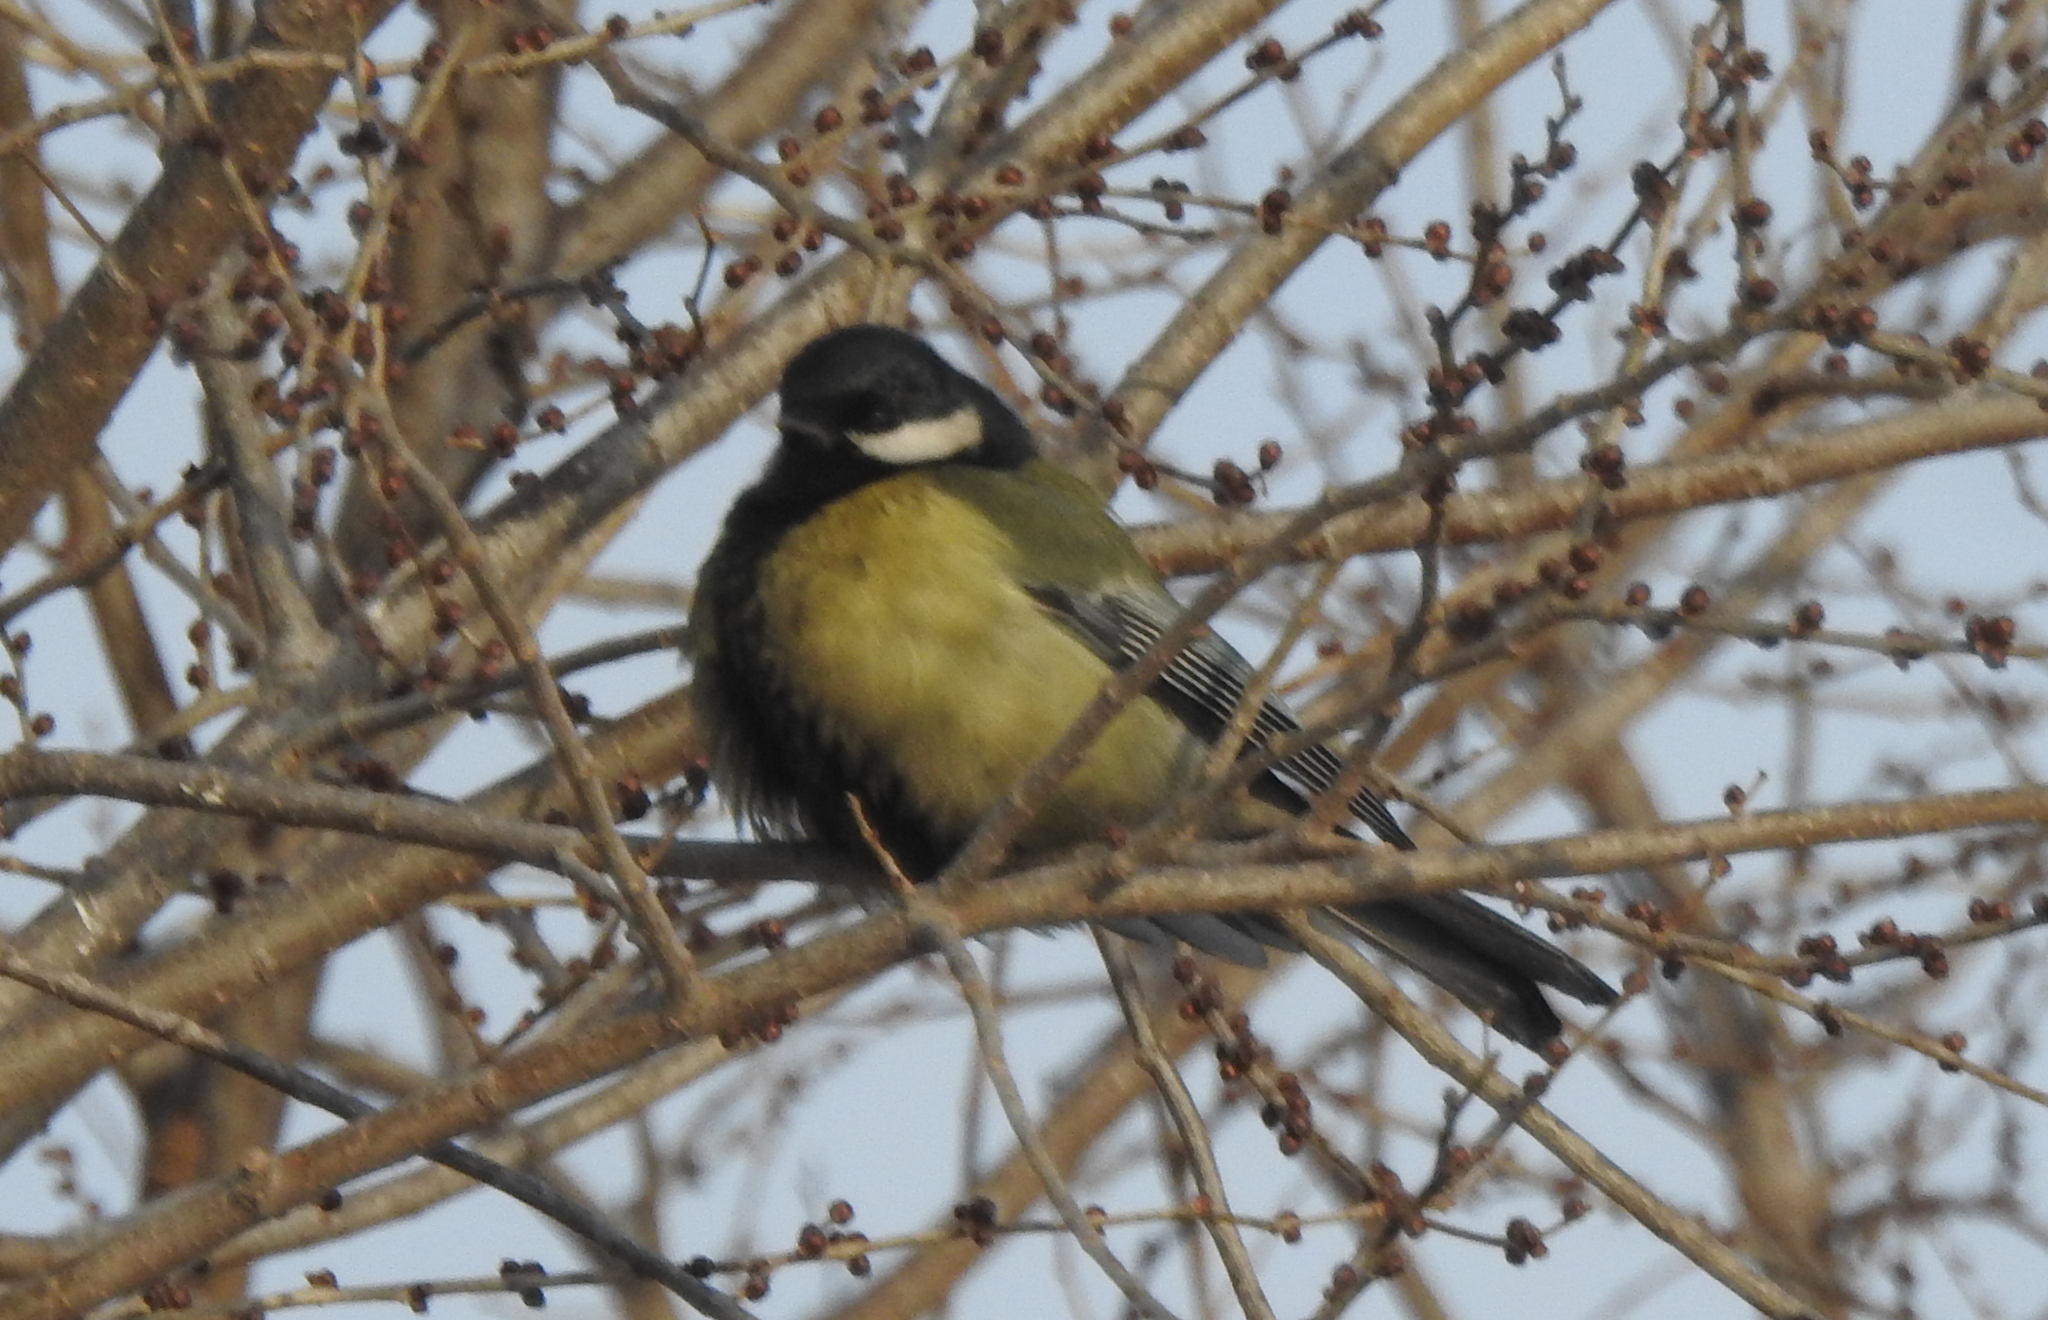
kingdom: Animalia
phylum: Chordata
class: Aves
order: Passeriformes
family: Paridae
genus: Parus
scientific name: Parus major
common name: Great tit
